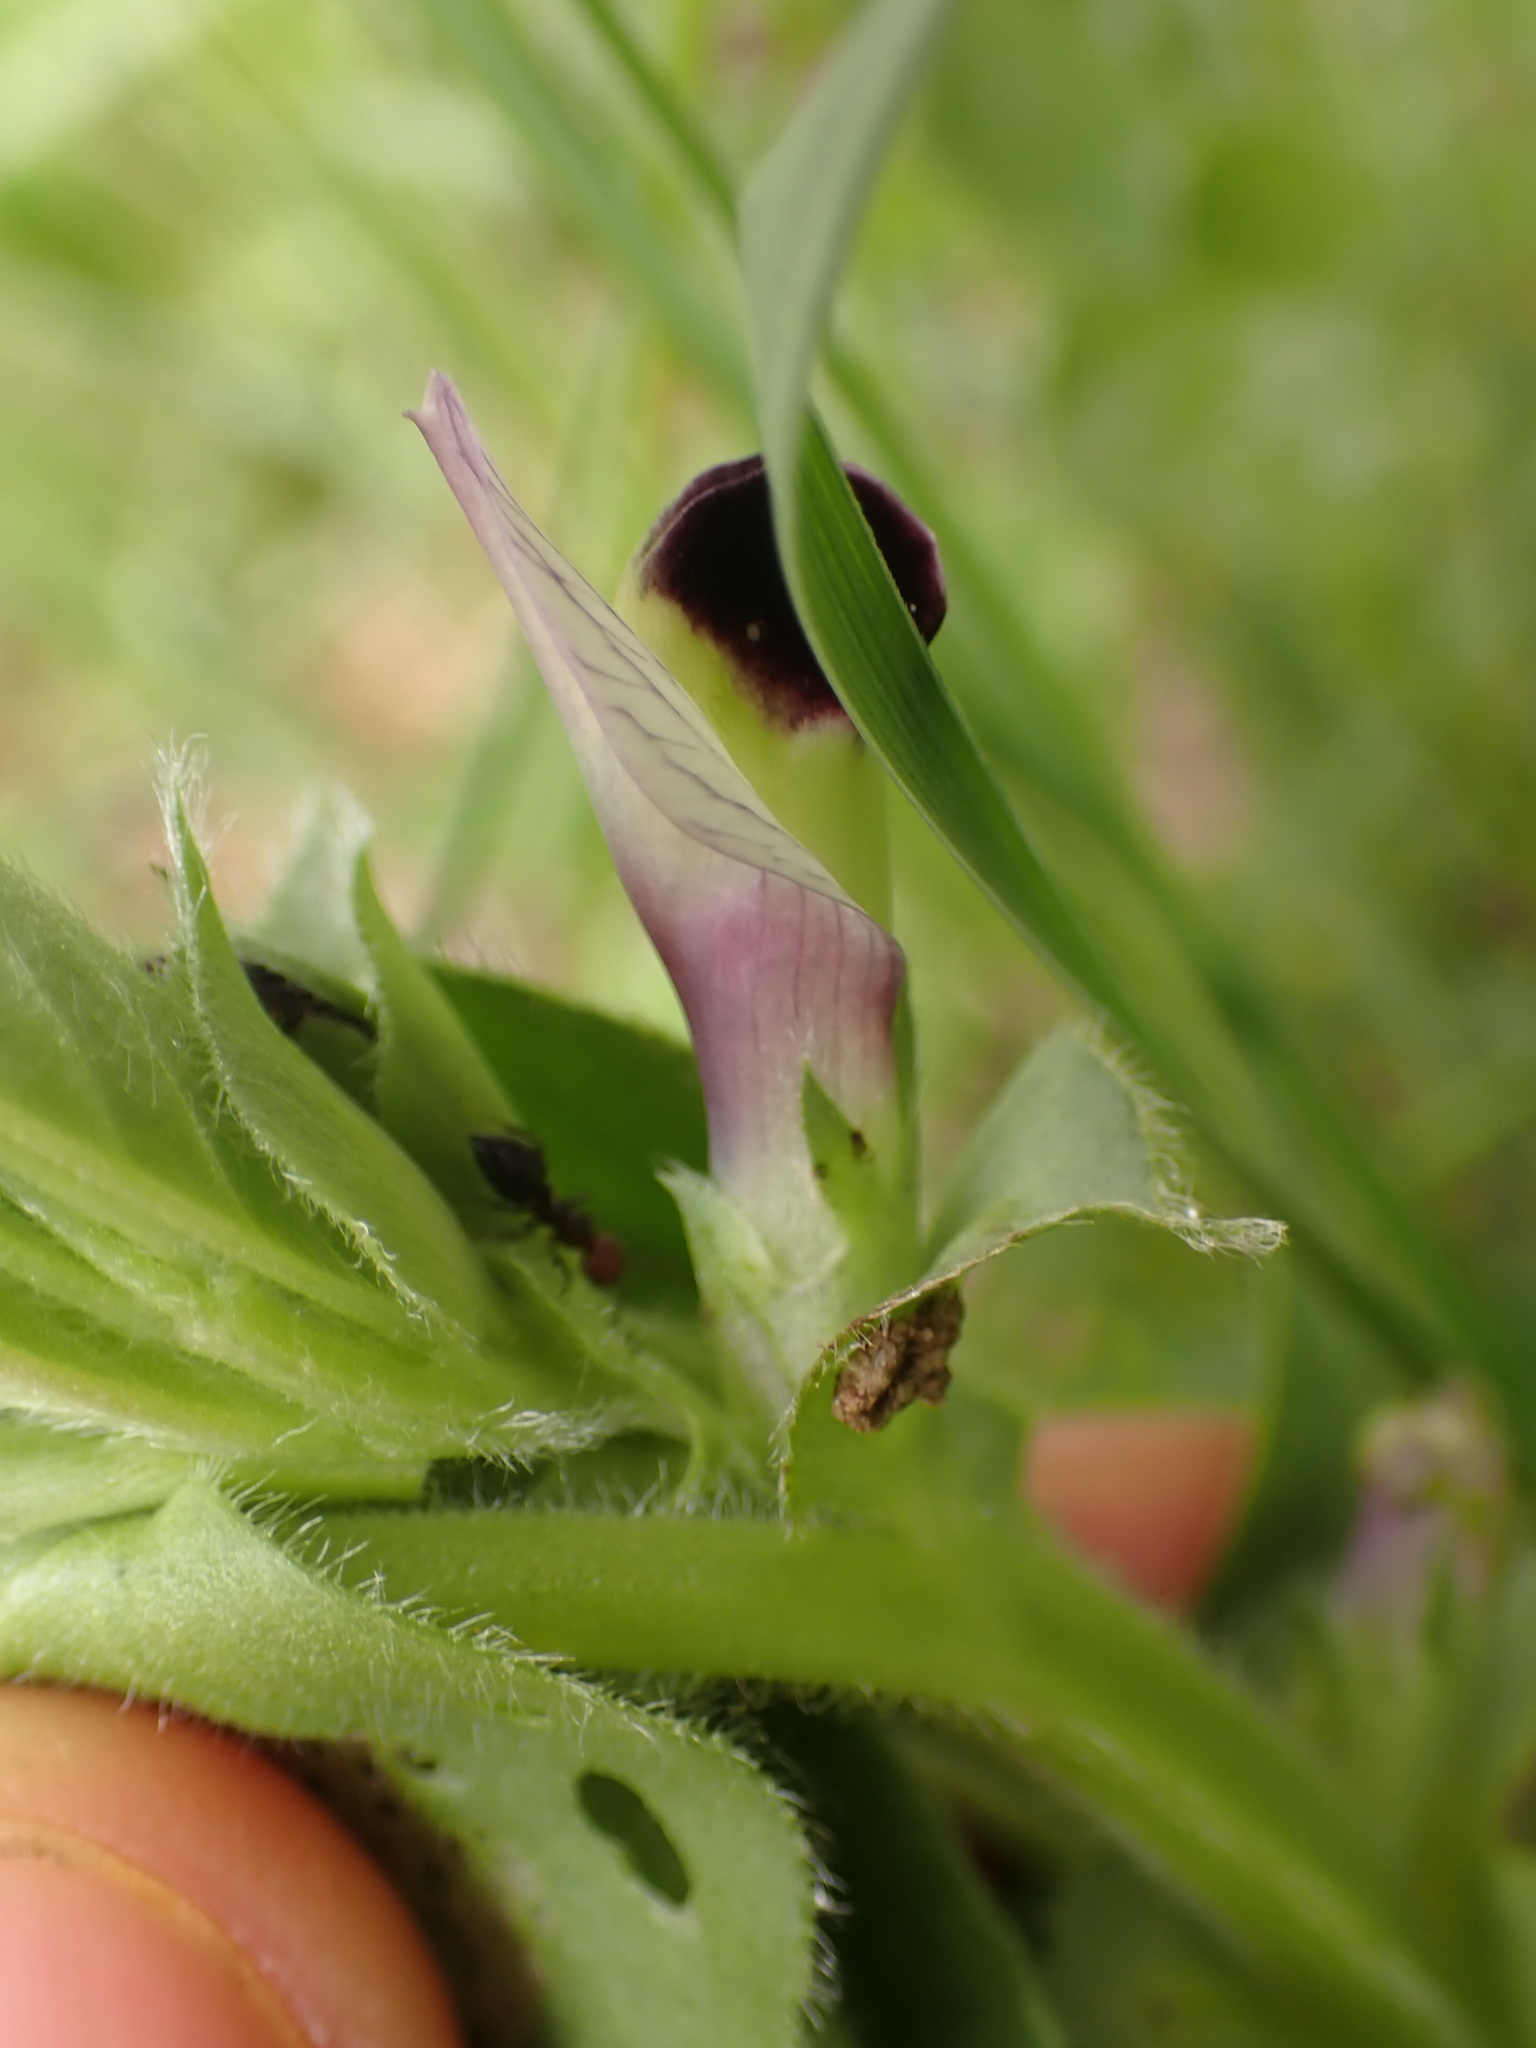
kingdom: Plantae
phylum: Tracheophyta
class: Magnoliopsida
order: Fabales
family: Fabaceae
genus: Vicia
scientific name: Vicia johannis
